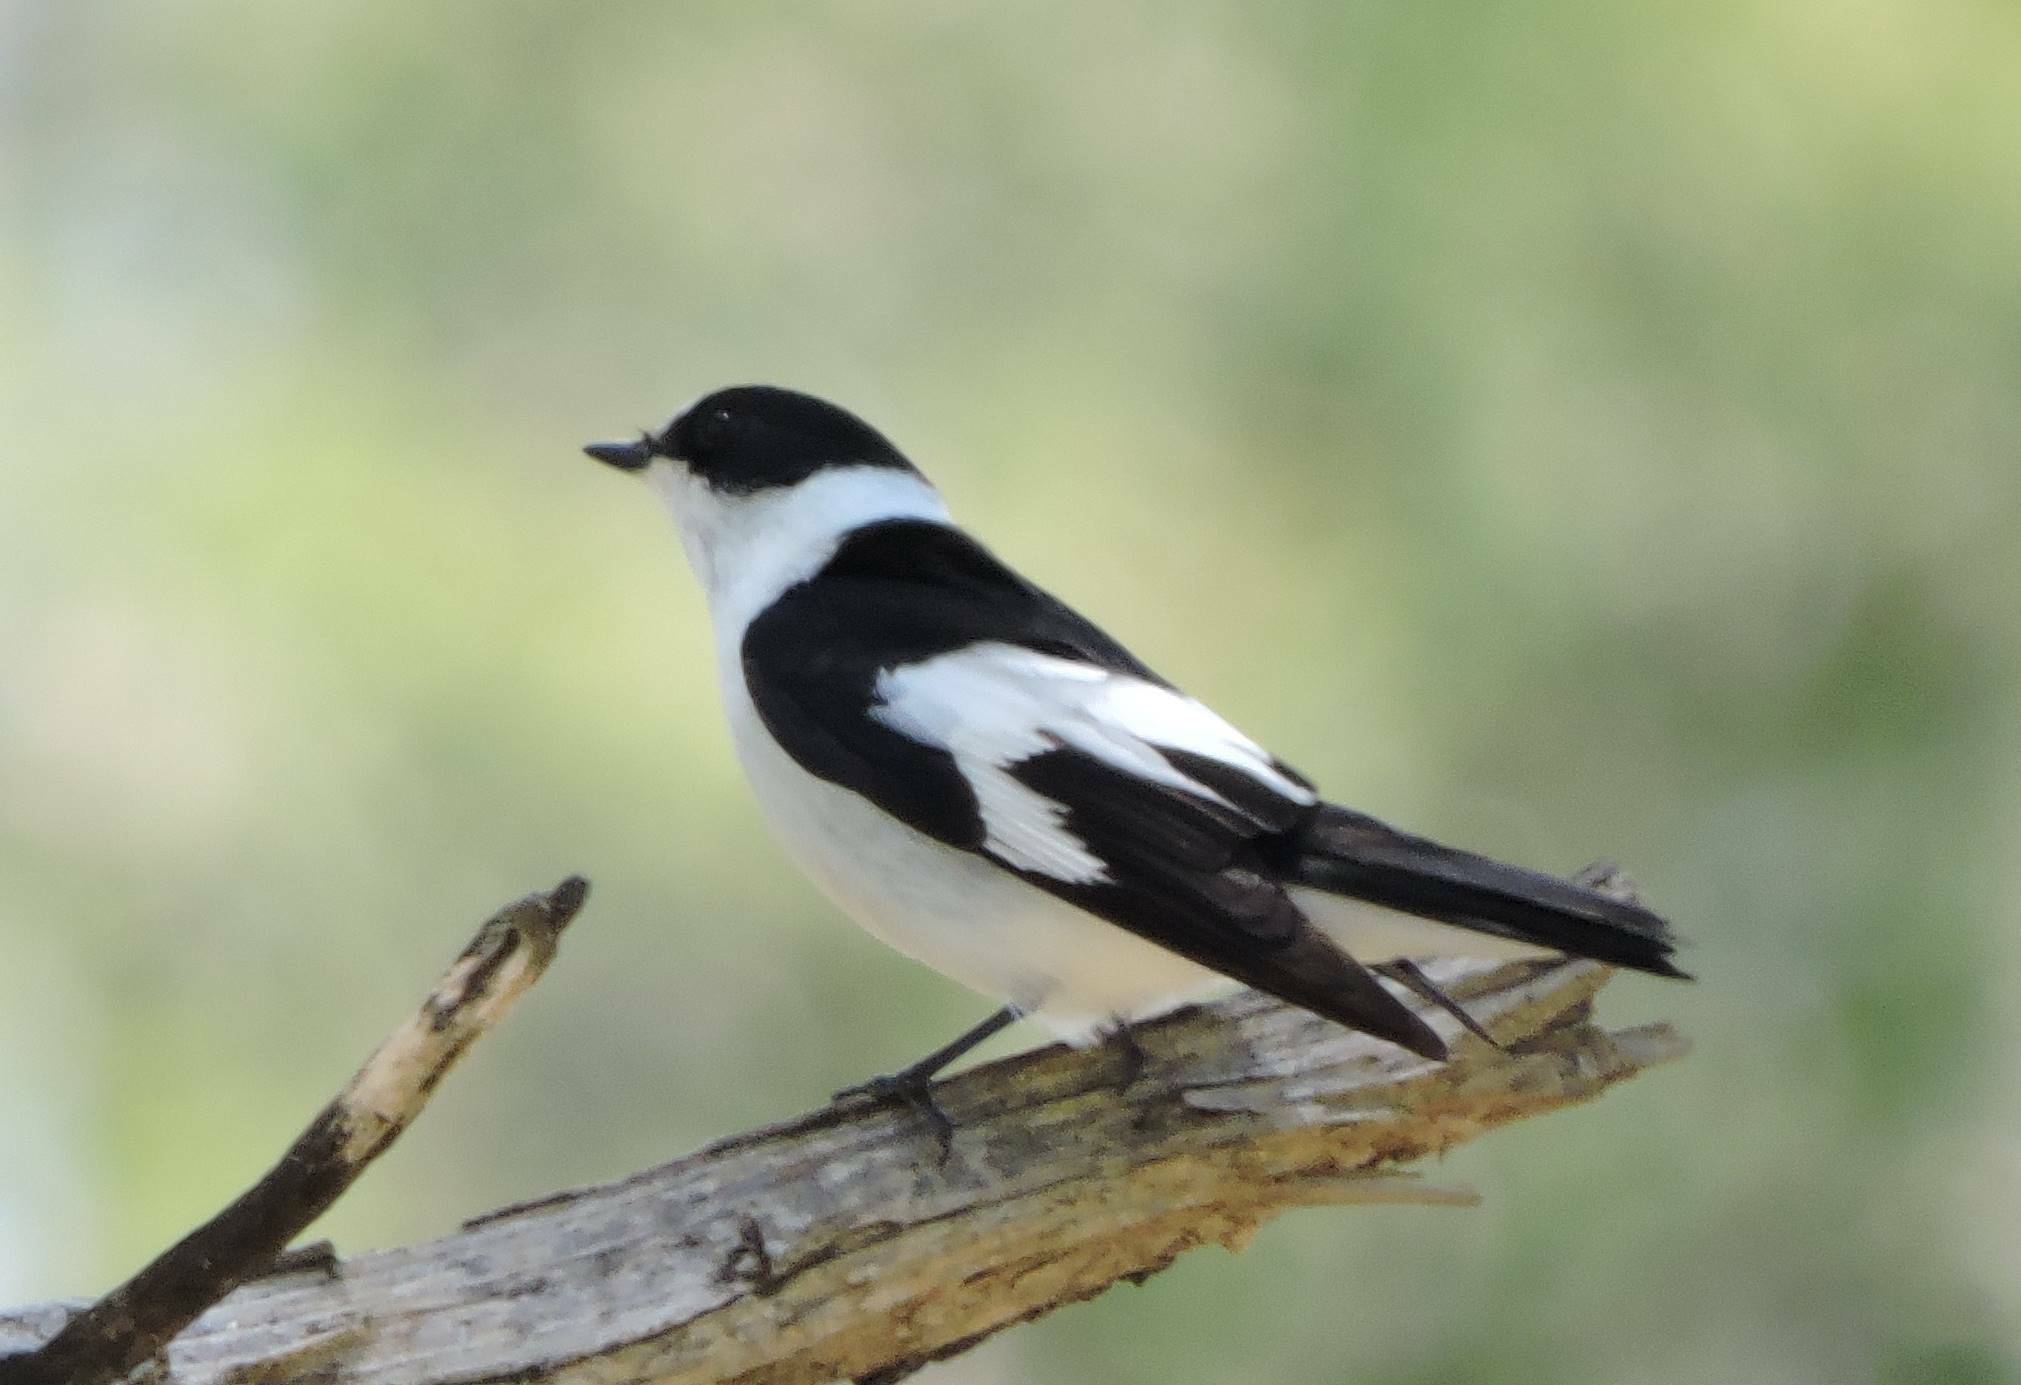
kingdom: Animalia
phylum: Chordata
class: Aves
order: Passeriformes
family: Muscicapidae
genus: Ficedula
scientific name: Ficedula albicollis
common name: Collared flycatcher
